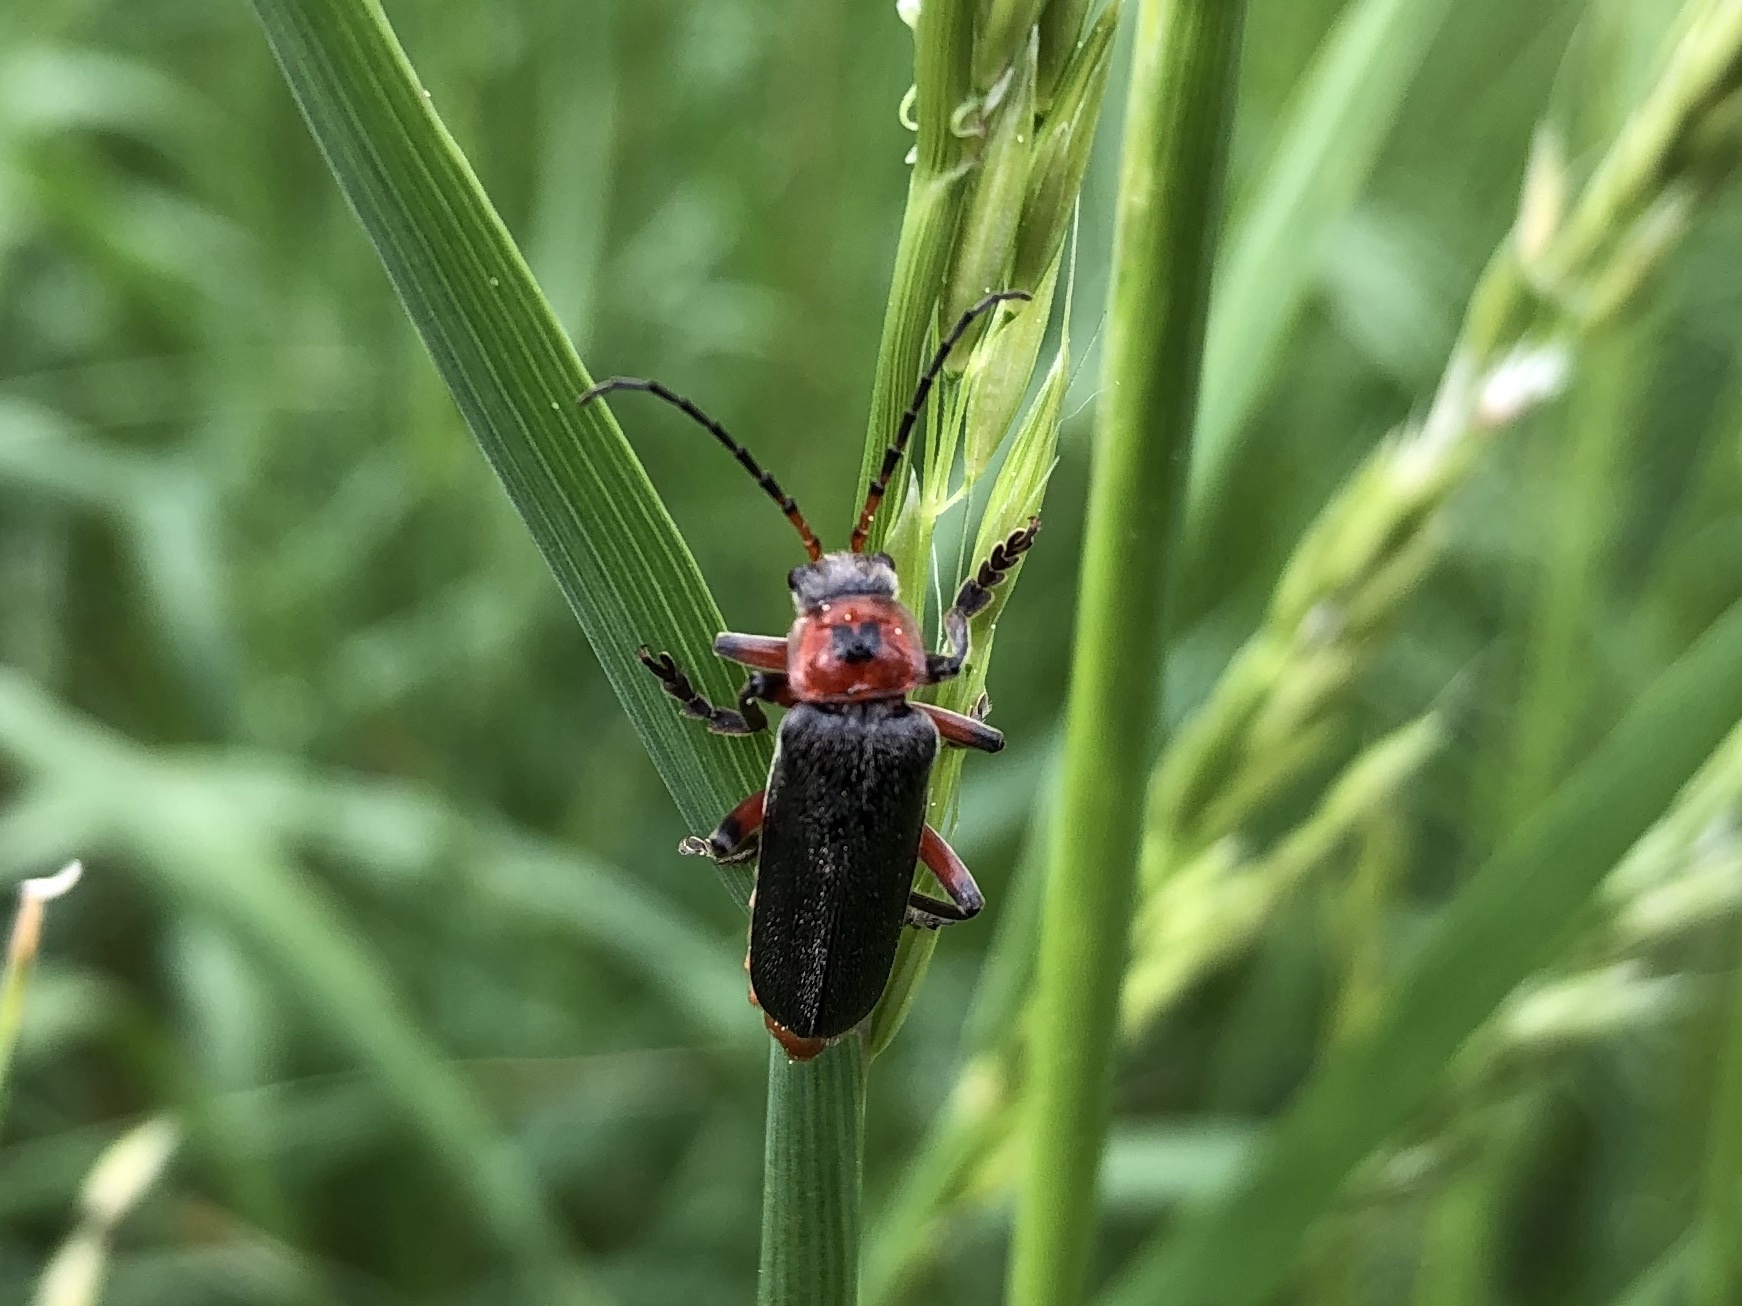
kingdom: Animalia
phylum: Arthropoda
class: Insecta
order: Coleoptera
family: Cantharidae
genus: Cantharis
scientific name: Cantharis rustica
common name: Soldier beetle
